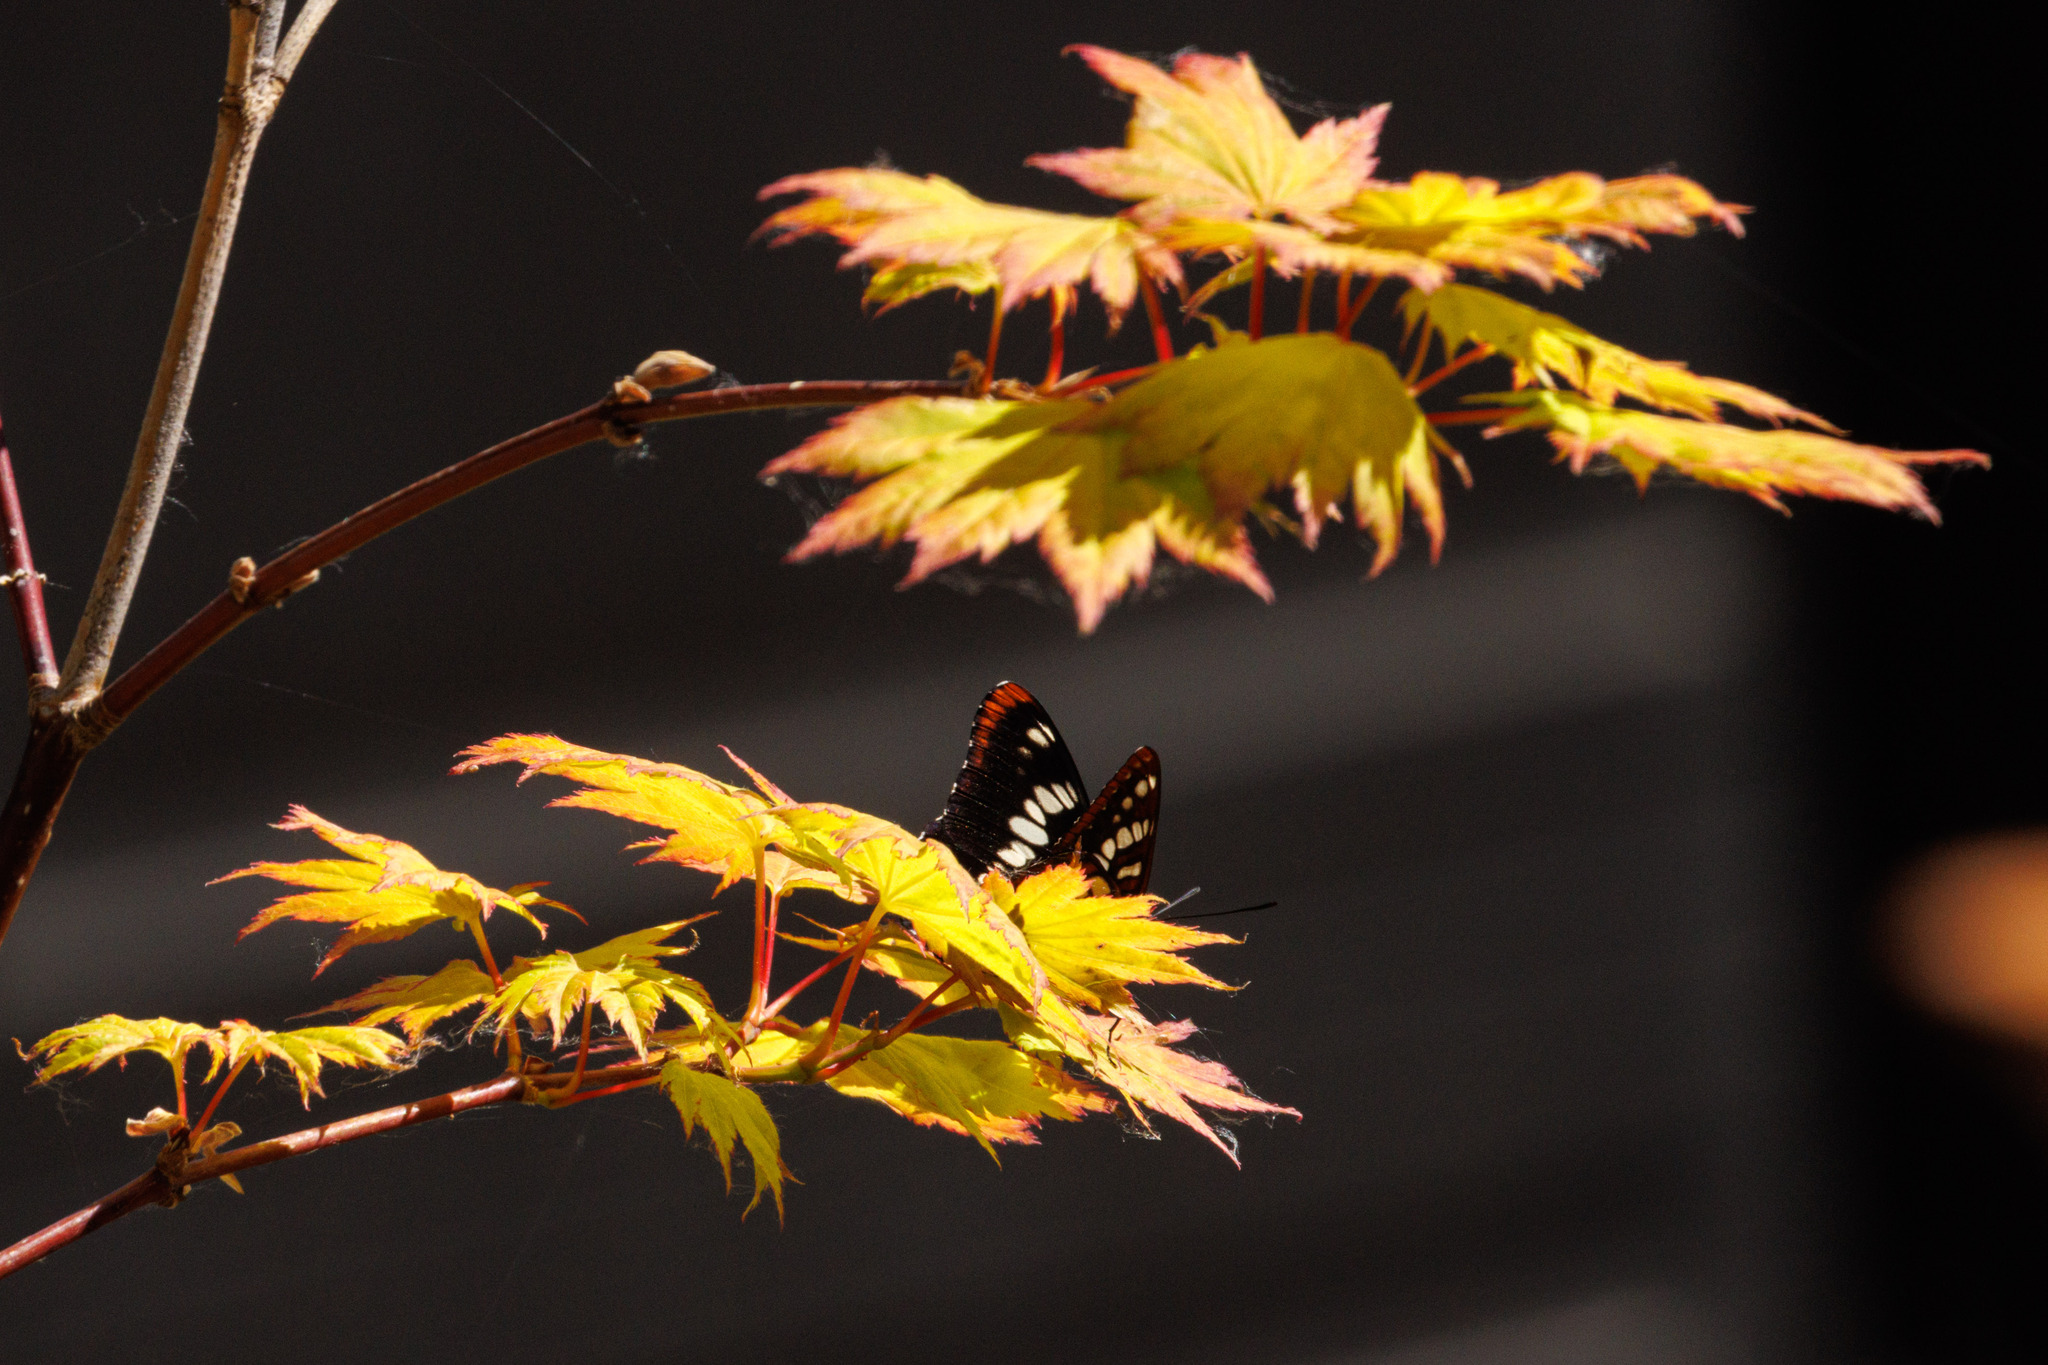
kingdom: Animalia
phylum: Arthropoda
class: Insecta
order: Lepidoptera
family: Nymphalidae
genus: Limenitis
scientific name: Limenitis lorquini
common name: Lorquin's admiral
